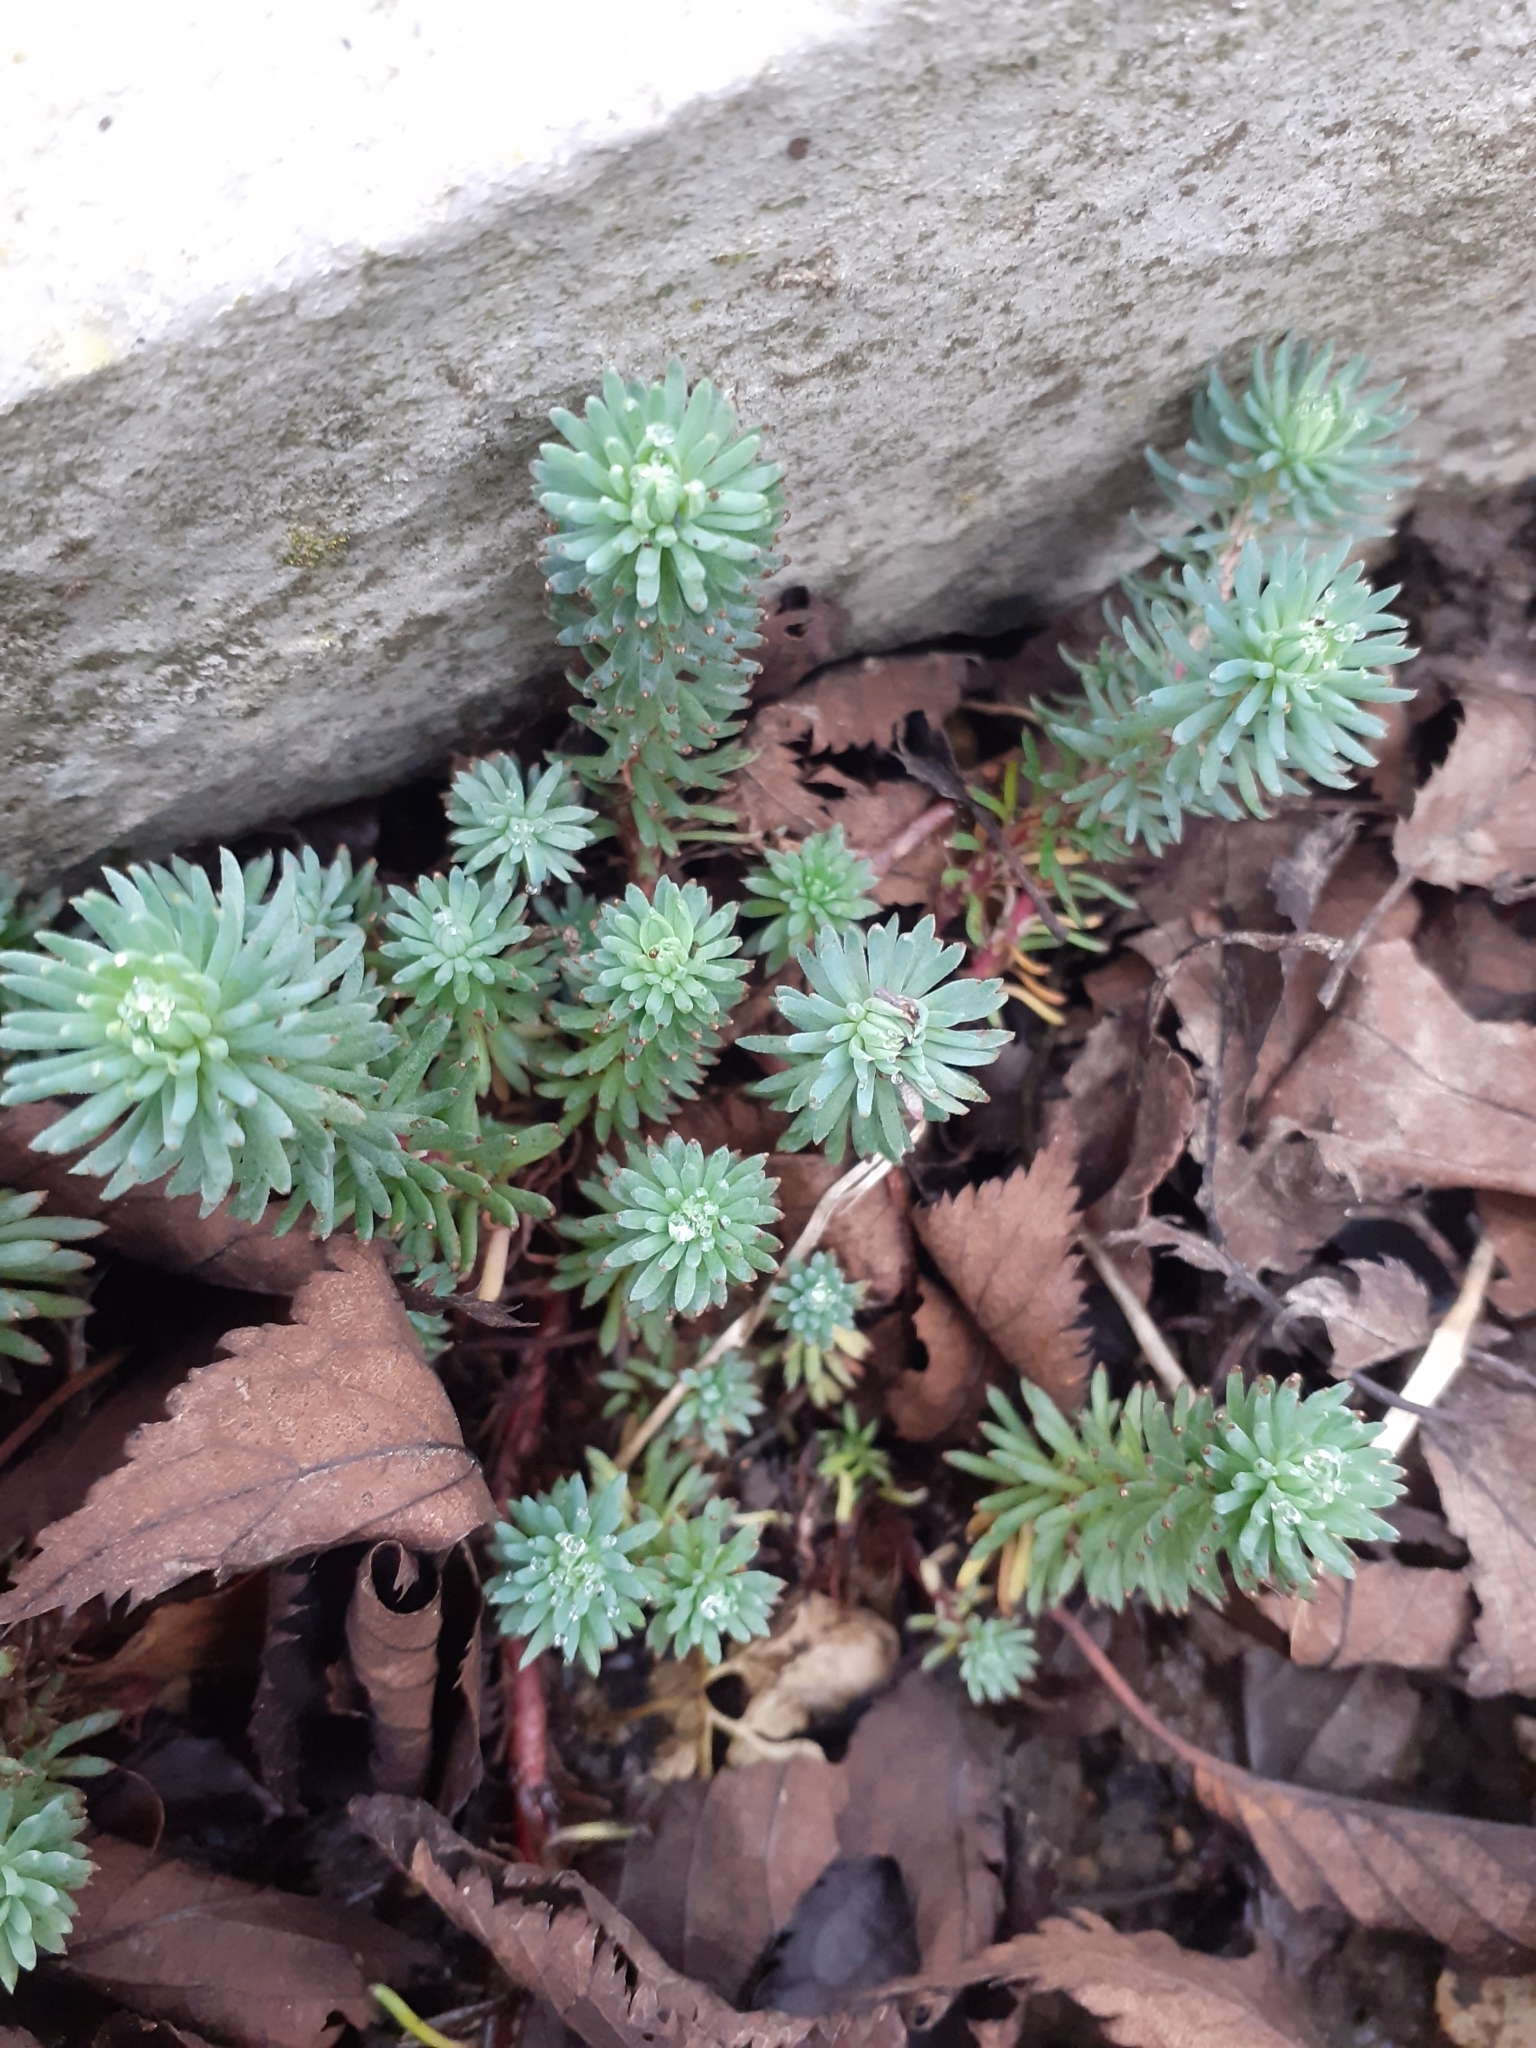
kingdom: Plantae
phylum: Tracheophyta
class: Magnoliopsida
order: Saxifragales
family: Crassulaceae
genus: Petrosedum
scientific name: Petrosedum forsterianum
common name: Forster's stonecrop
